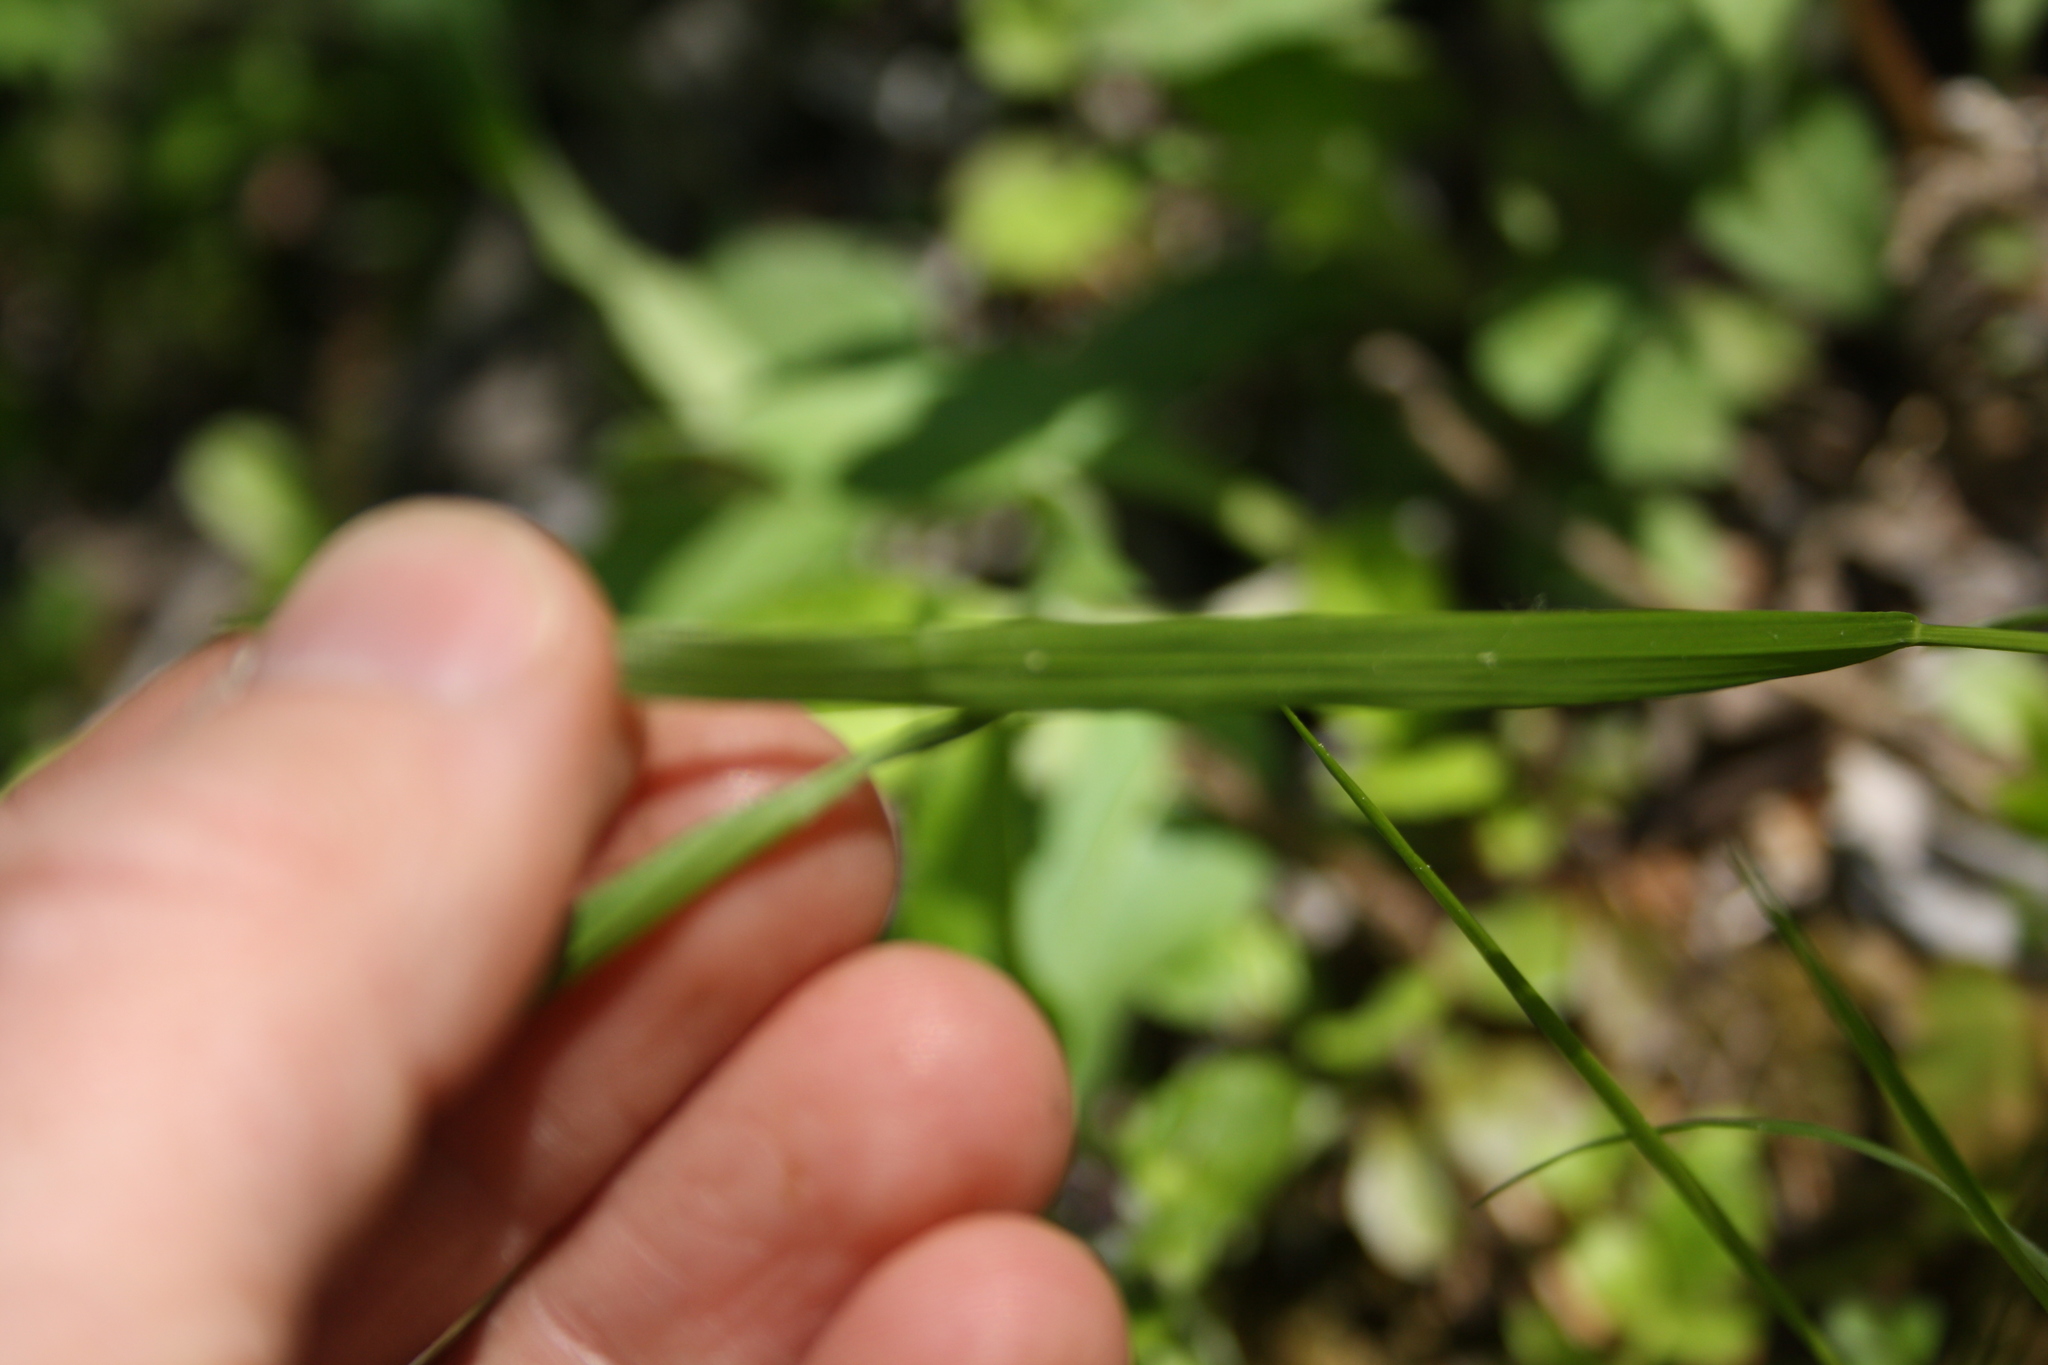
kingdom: Plantae
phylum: Tracheophyta
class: Liliopsida
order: Poales
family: Poaceae
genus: Melica
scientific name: Melica nutans
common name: Mountain melick
